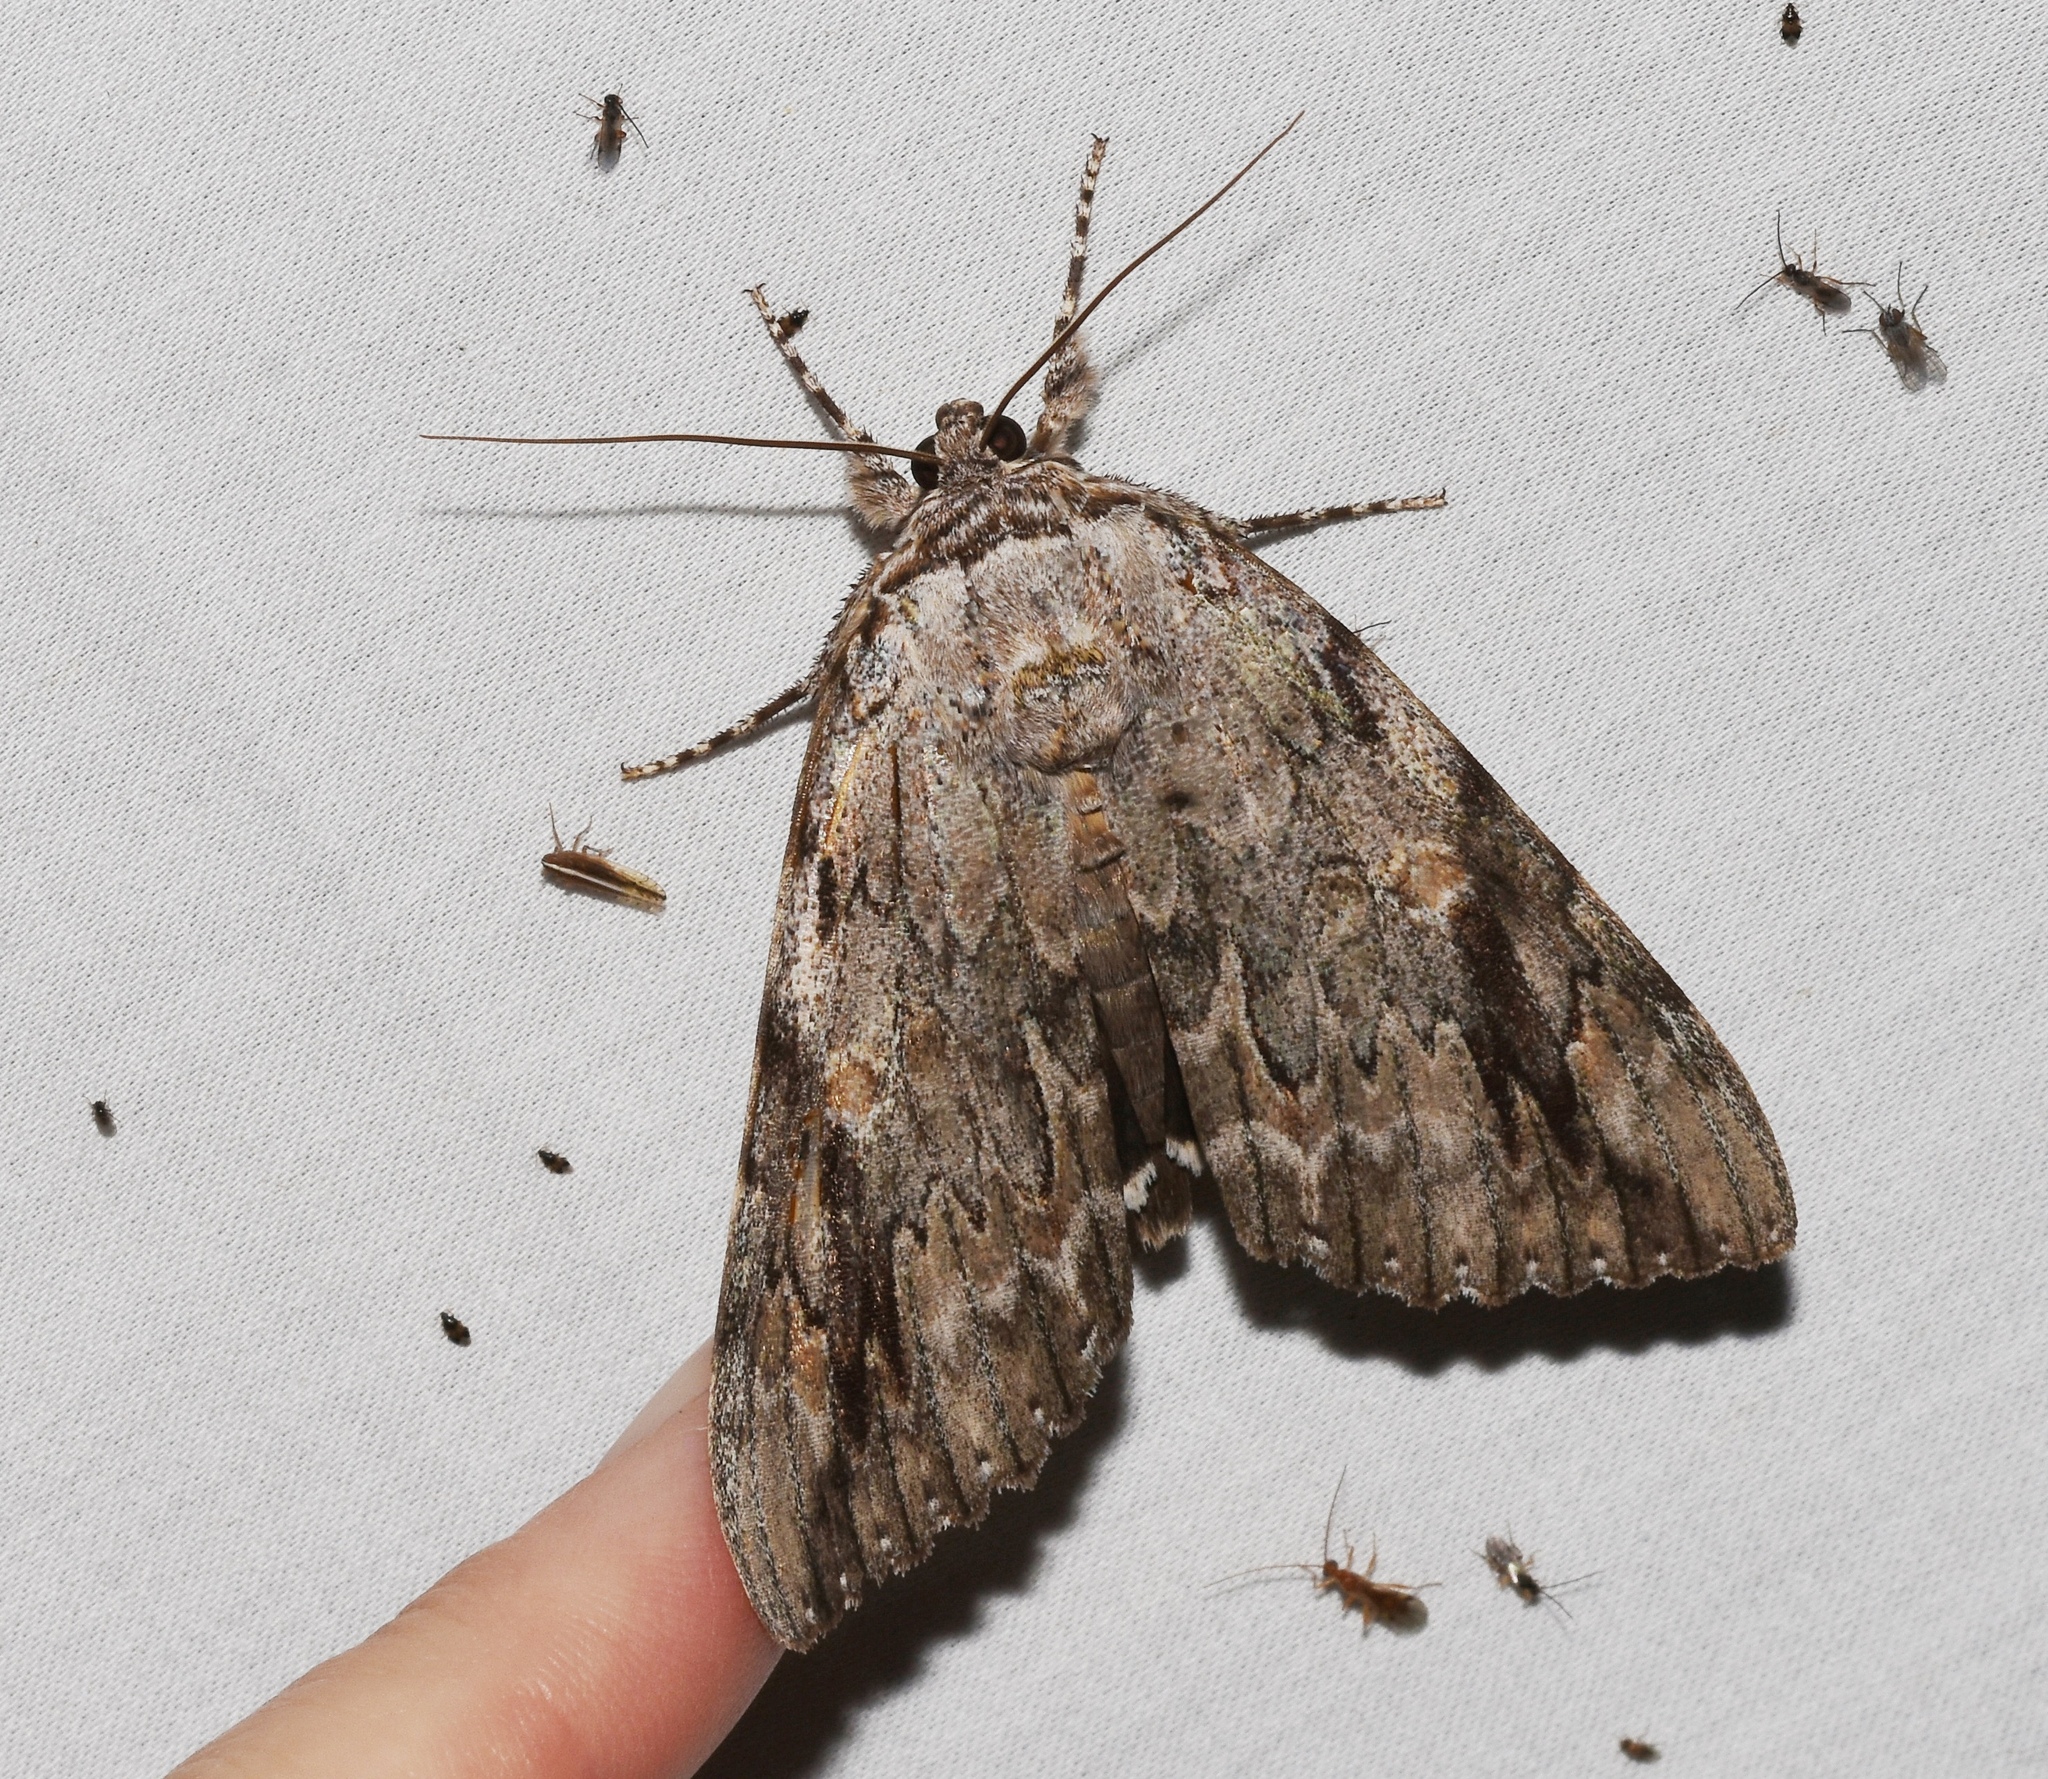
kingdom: Animalia
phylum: Arthropoda
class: Insecta
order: Lepidoptera
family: Erebidae
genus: Catocala
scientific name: Catocala maestosa
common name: Sad underwing
